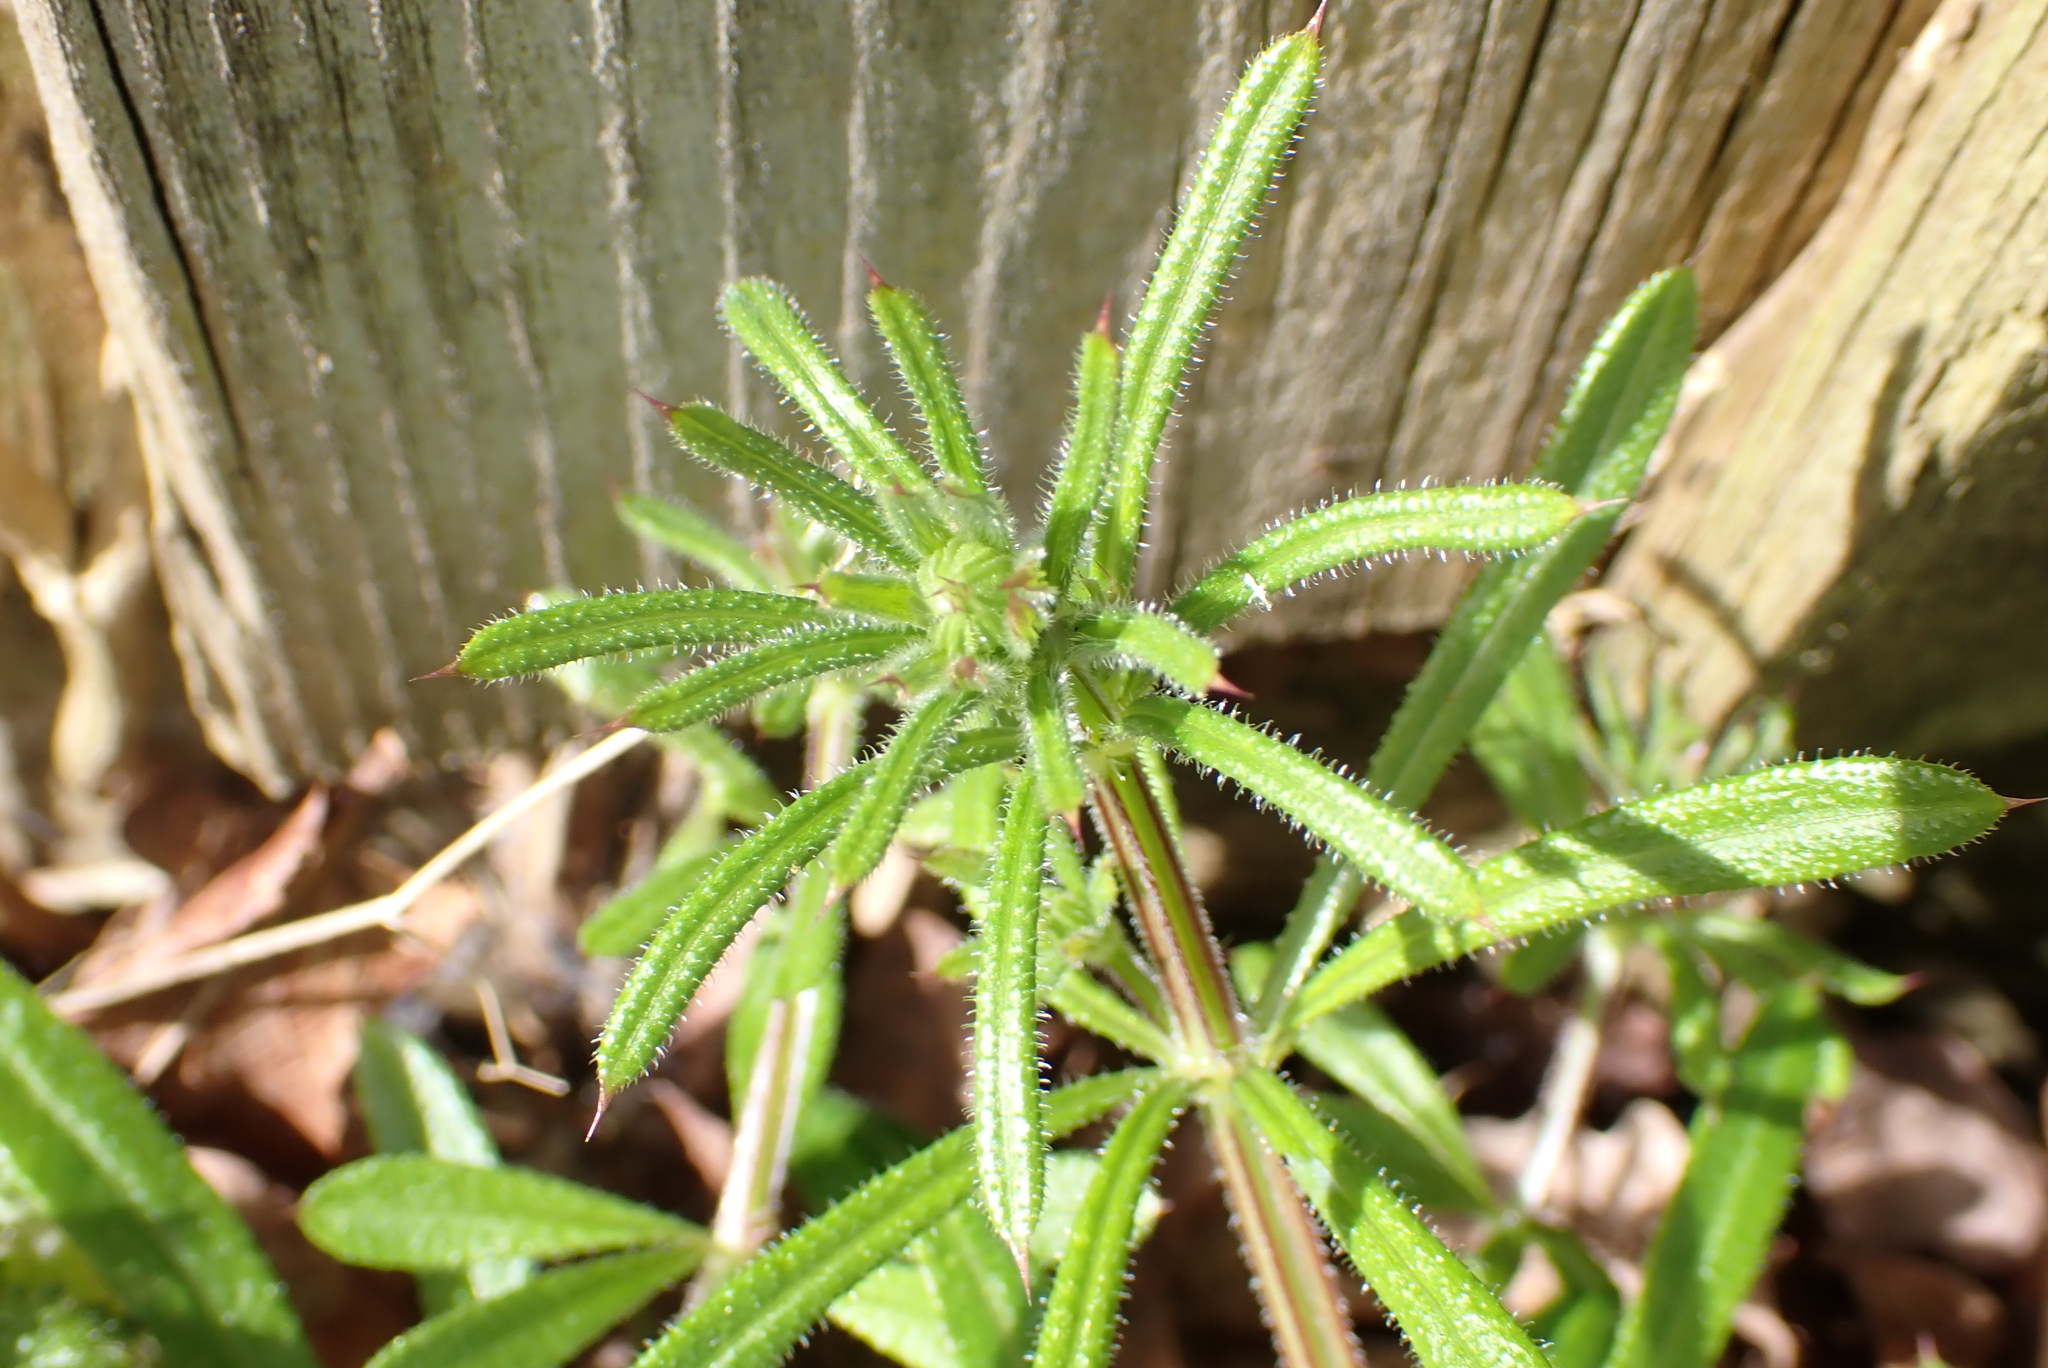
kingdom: Plantae
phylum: Tracheophyta
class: Magnoliopsida
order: Gentianales
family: Rubiaceae
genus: Galium
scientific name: Galium aparine
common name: Cleavers
